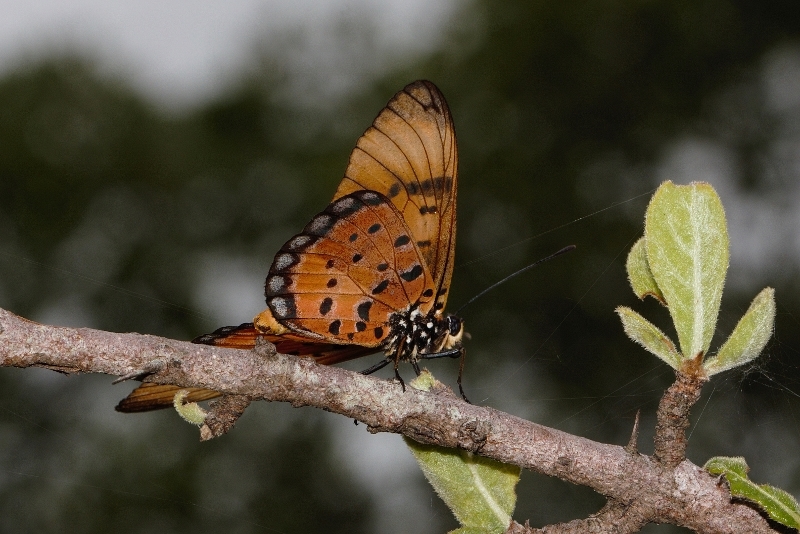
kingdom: Animalia
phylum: Arthropoda
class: Insecta
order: Lepidoptera
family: Nymphalidae
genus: Stephenia
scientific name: Stephenia
